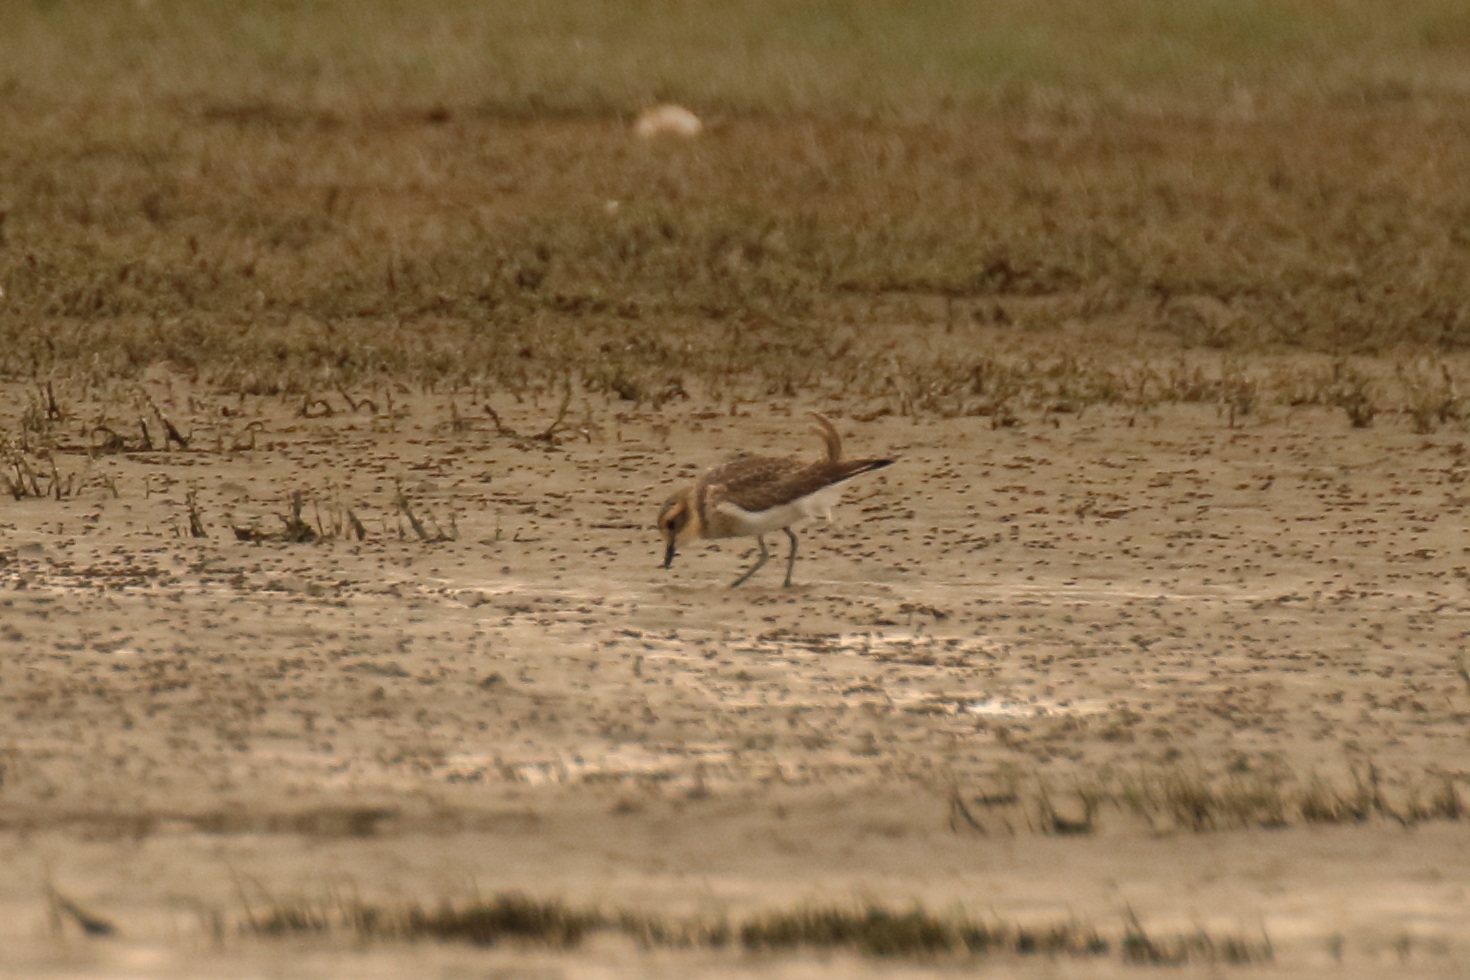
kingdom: Animalia
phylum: Chordata
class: Aves
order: Charadriiformes
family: Charadriidae
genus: Anarhynchus
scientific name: Anarhynchus
